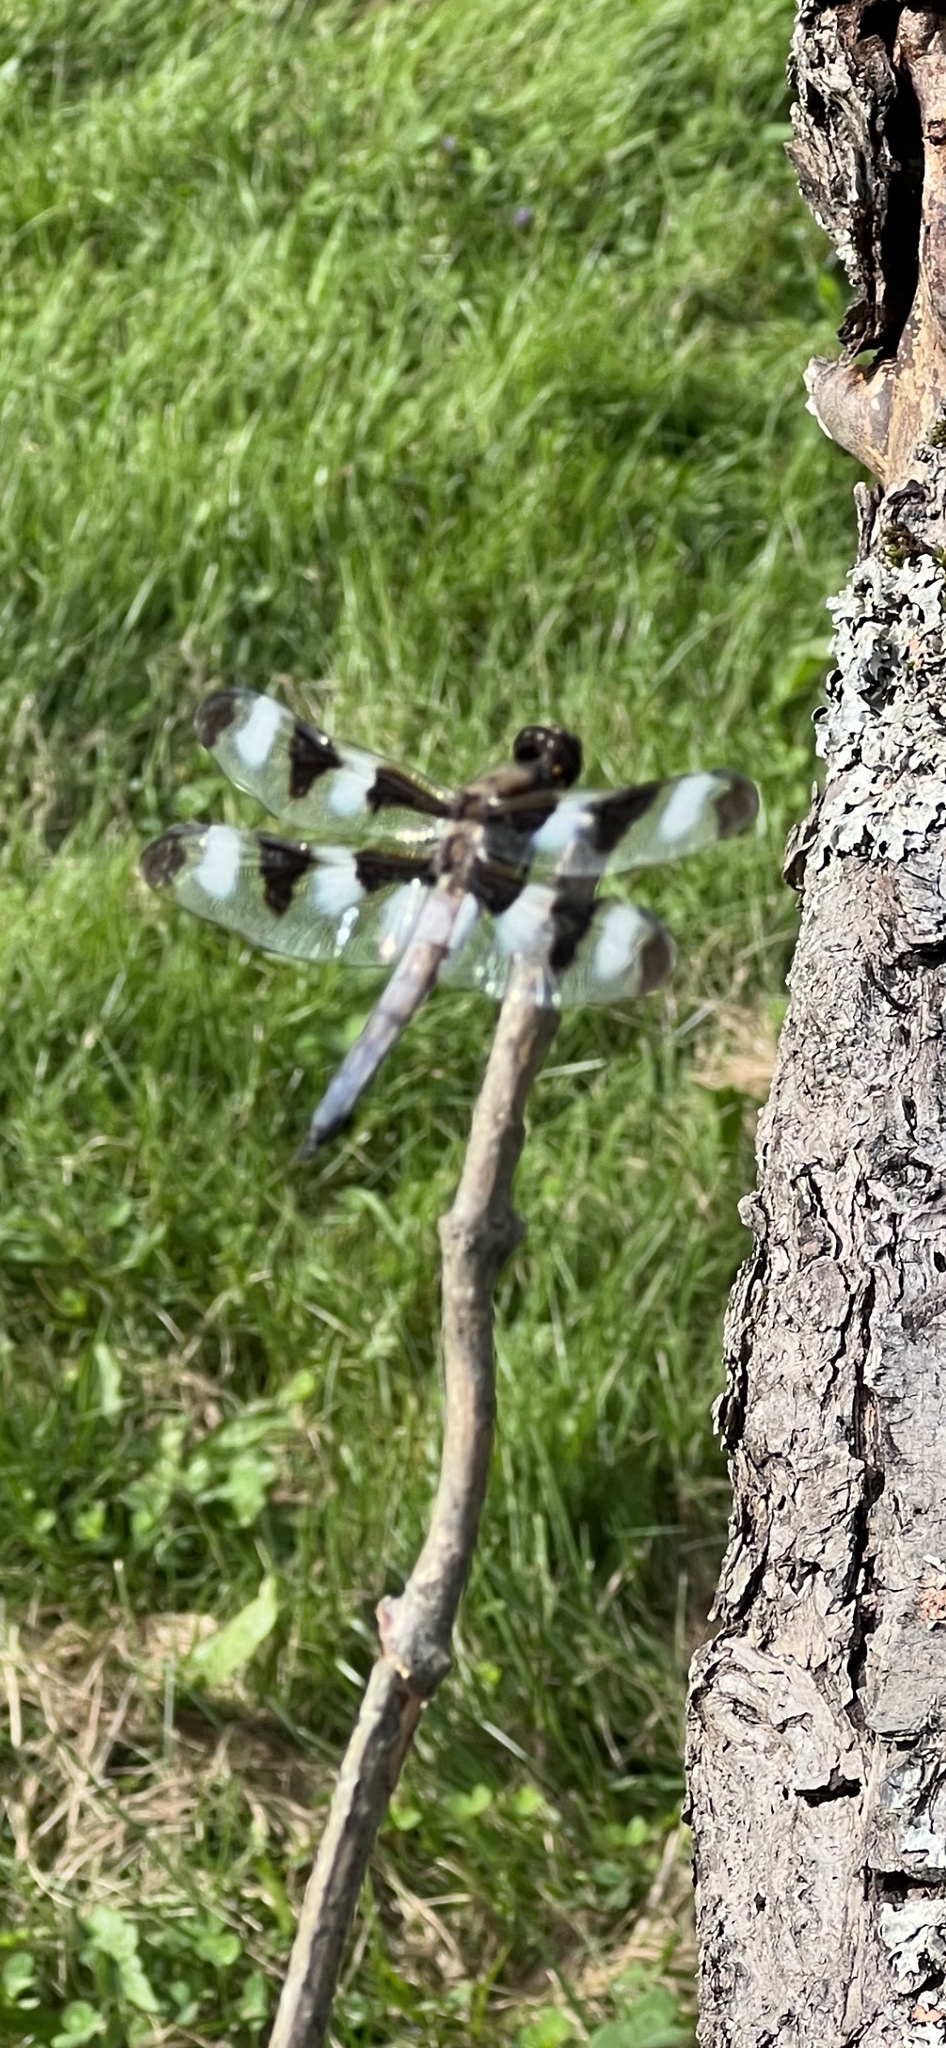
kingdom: Animalia
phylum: Arthropoda
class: Insecta
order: Odonata
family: Libellulidae
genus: Libellula
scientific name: Libellula pulchella
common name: Twelve-spotted skimmer
